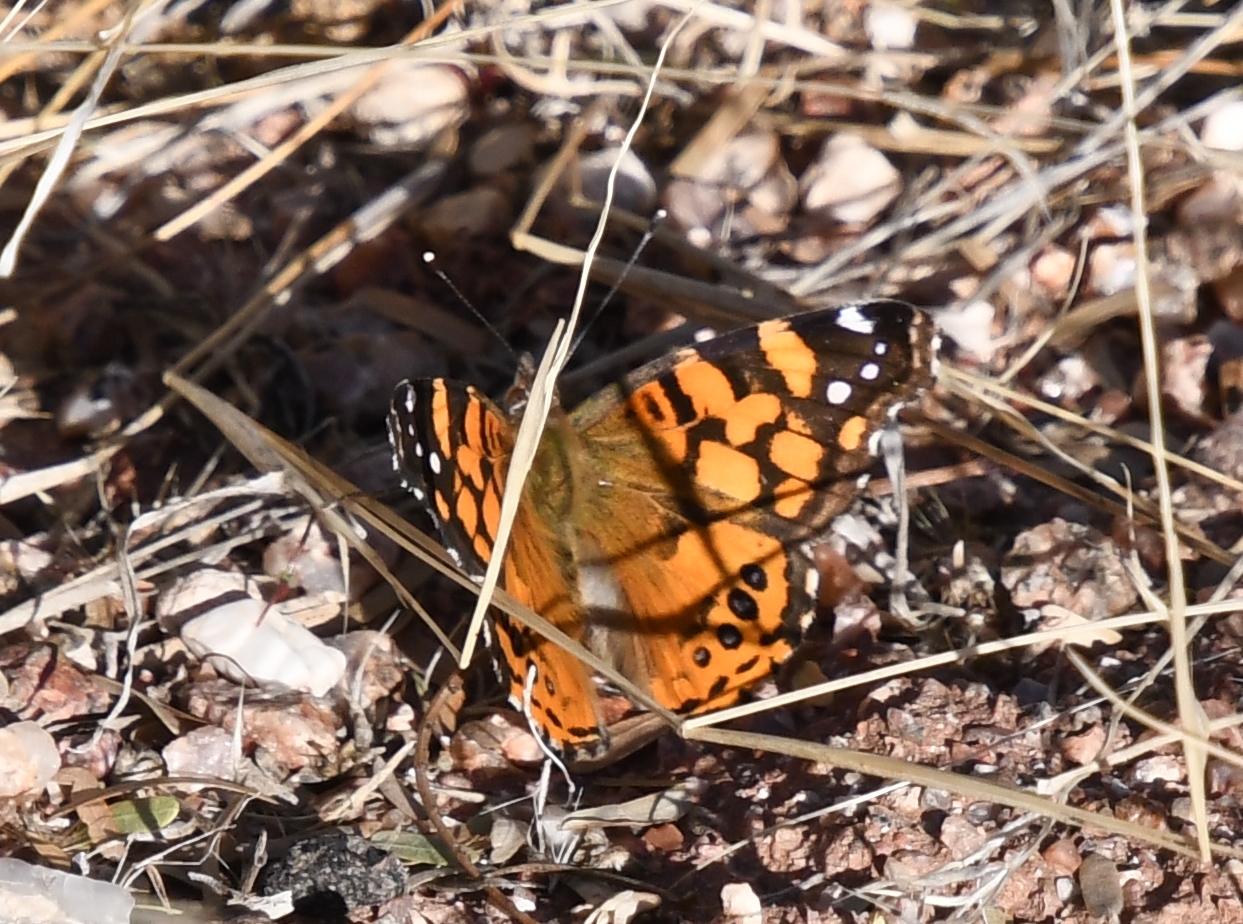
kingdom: Animalia
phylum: Arthropoda
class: Insecta
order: Lepidoptera
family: Nymphalidae
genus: Vanessa
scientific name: Vanessa annabella
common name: West coast lady
